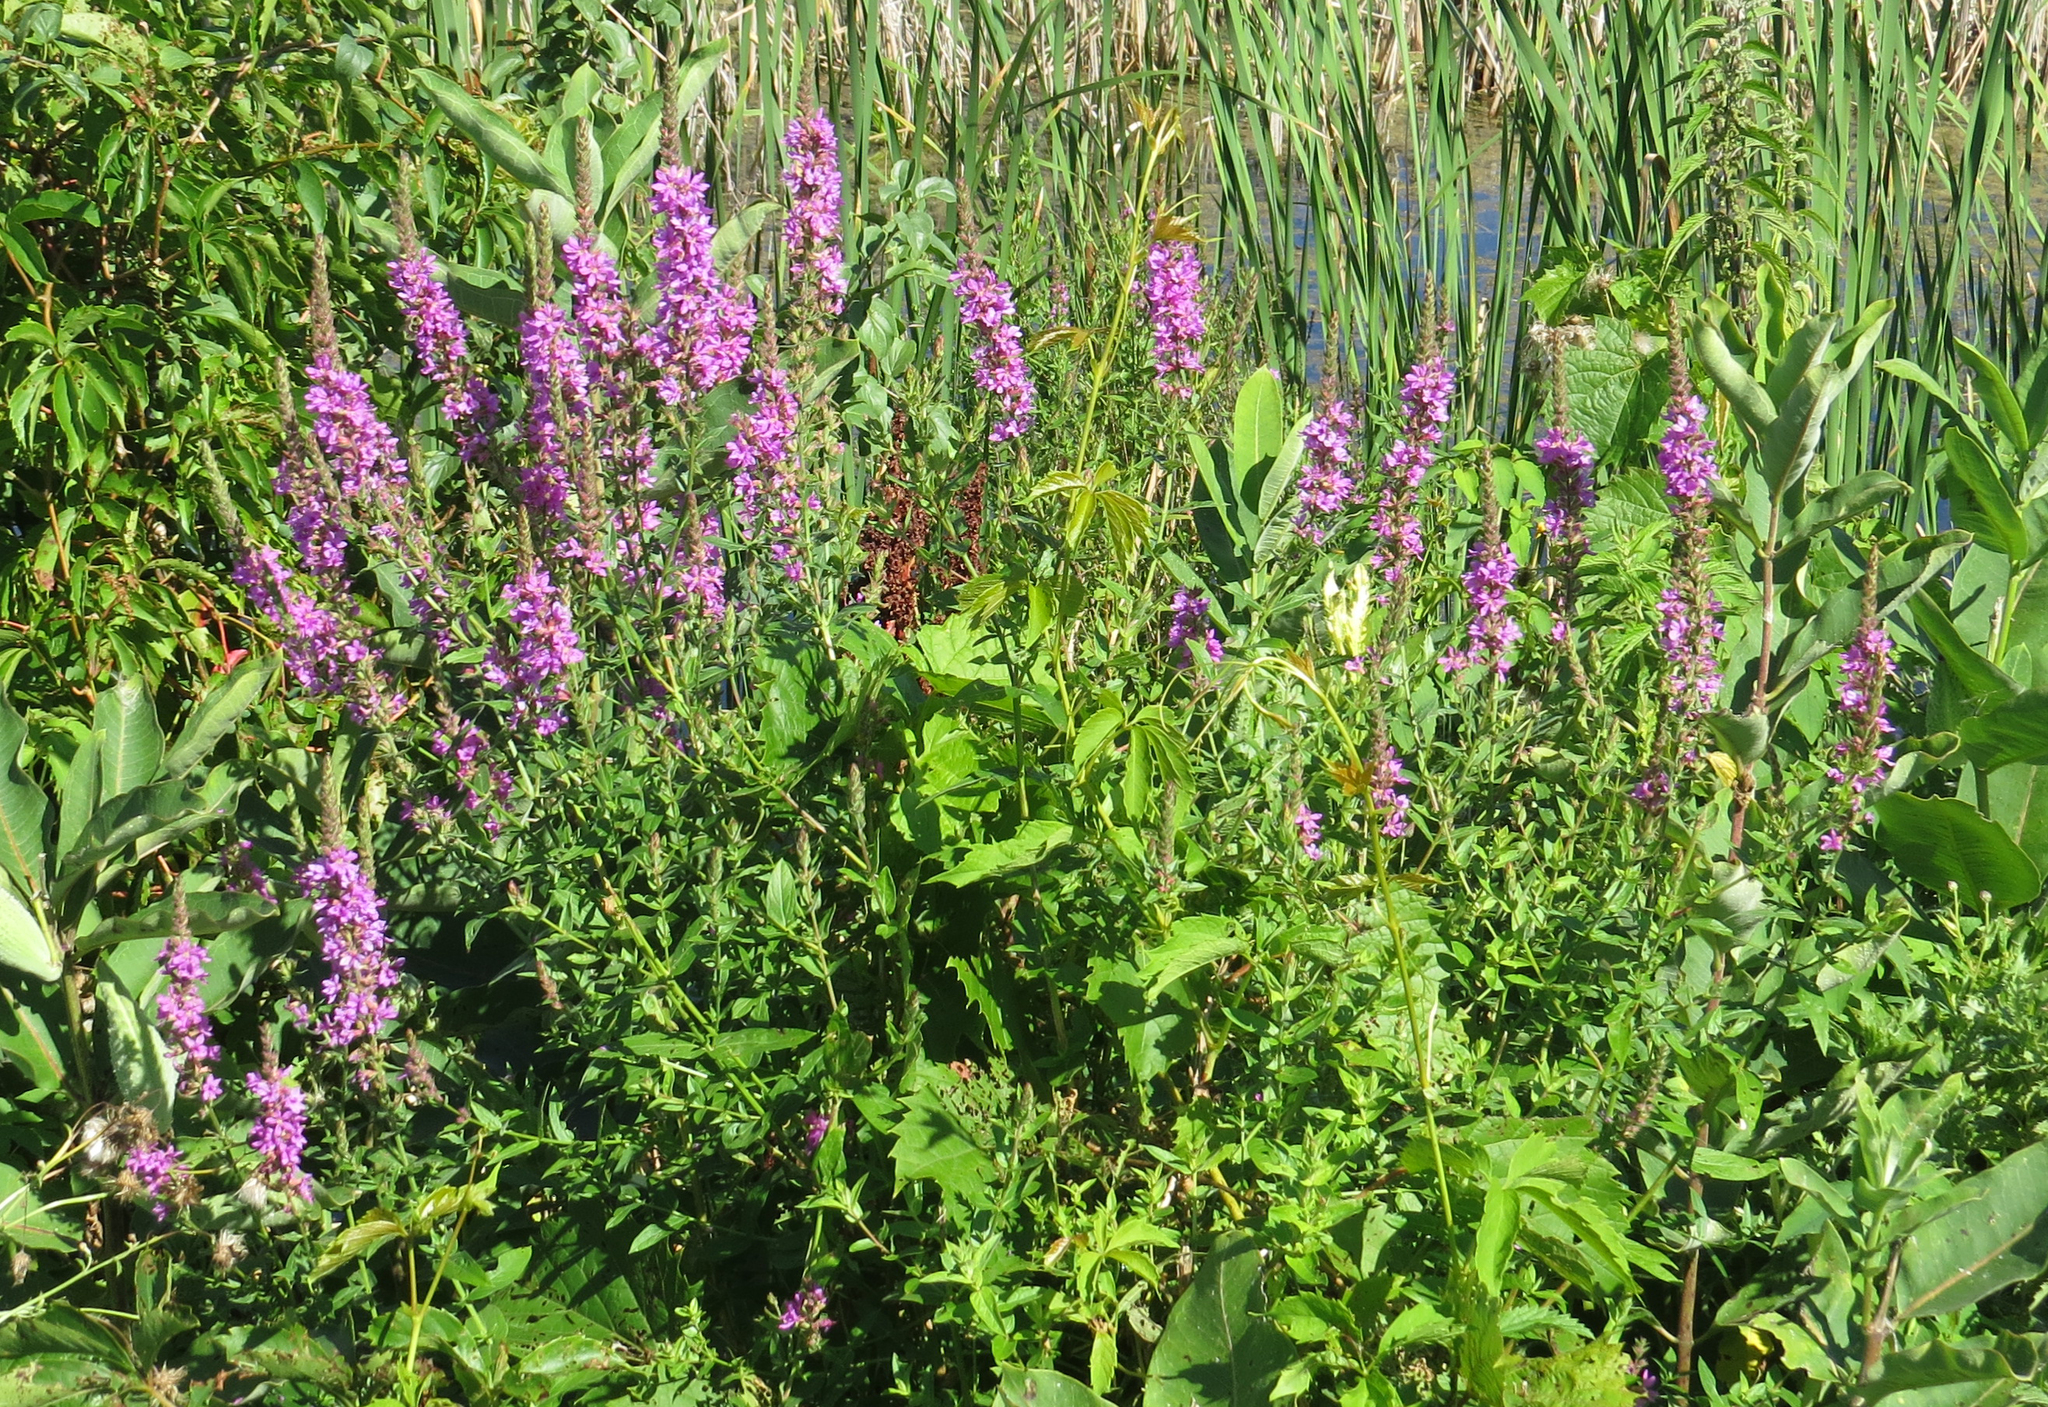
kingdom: Plantae
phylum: Tracheophyta
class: Magnoliopsida
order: Myrtales
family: Lythraceae
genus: Lythrum
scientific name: Lythrum salicaria
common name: Purple loosestrife
